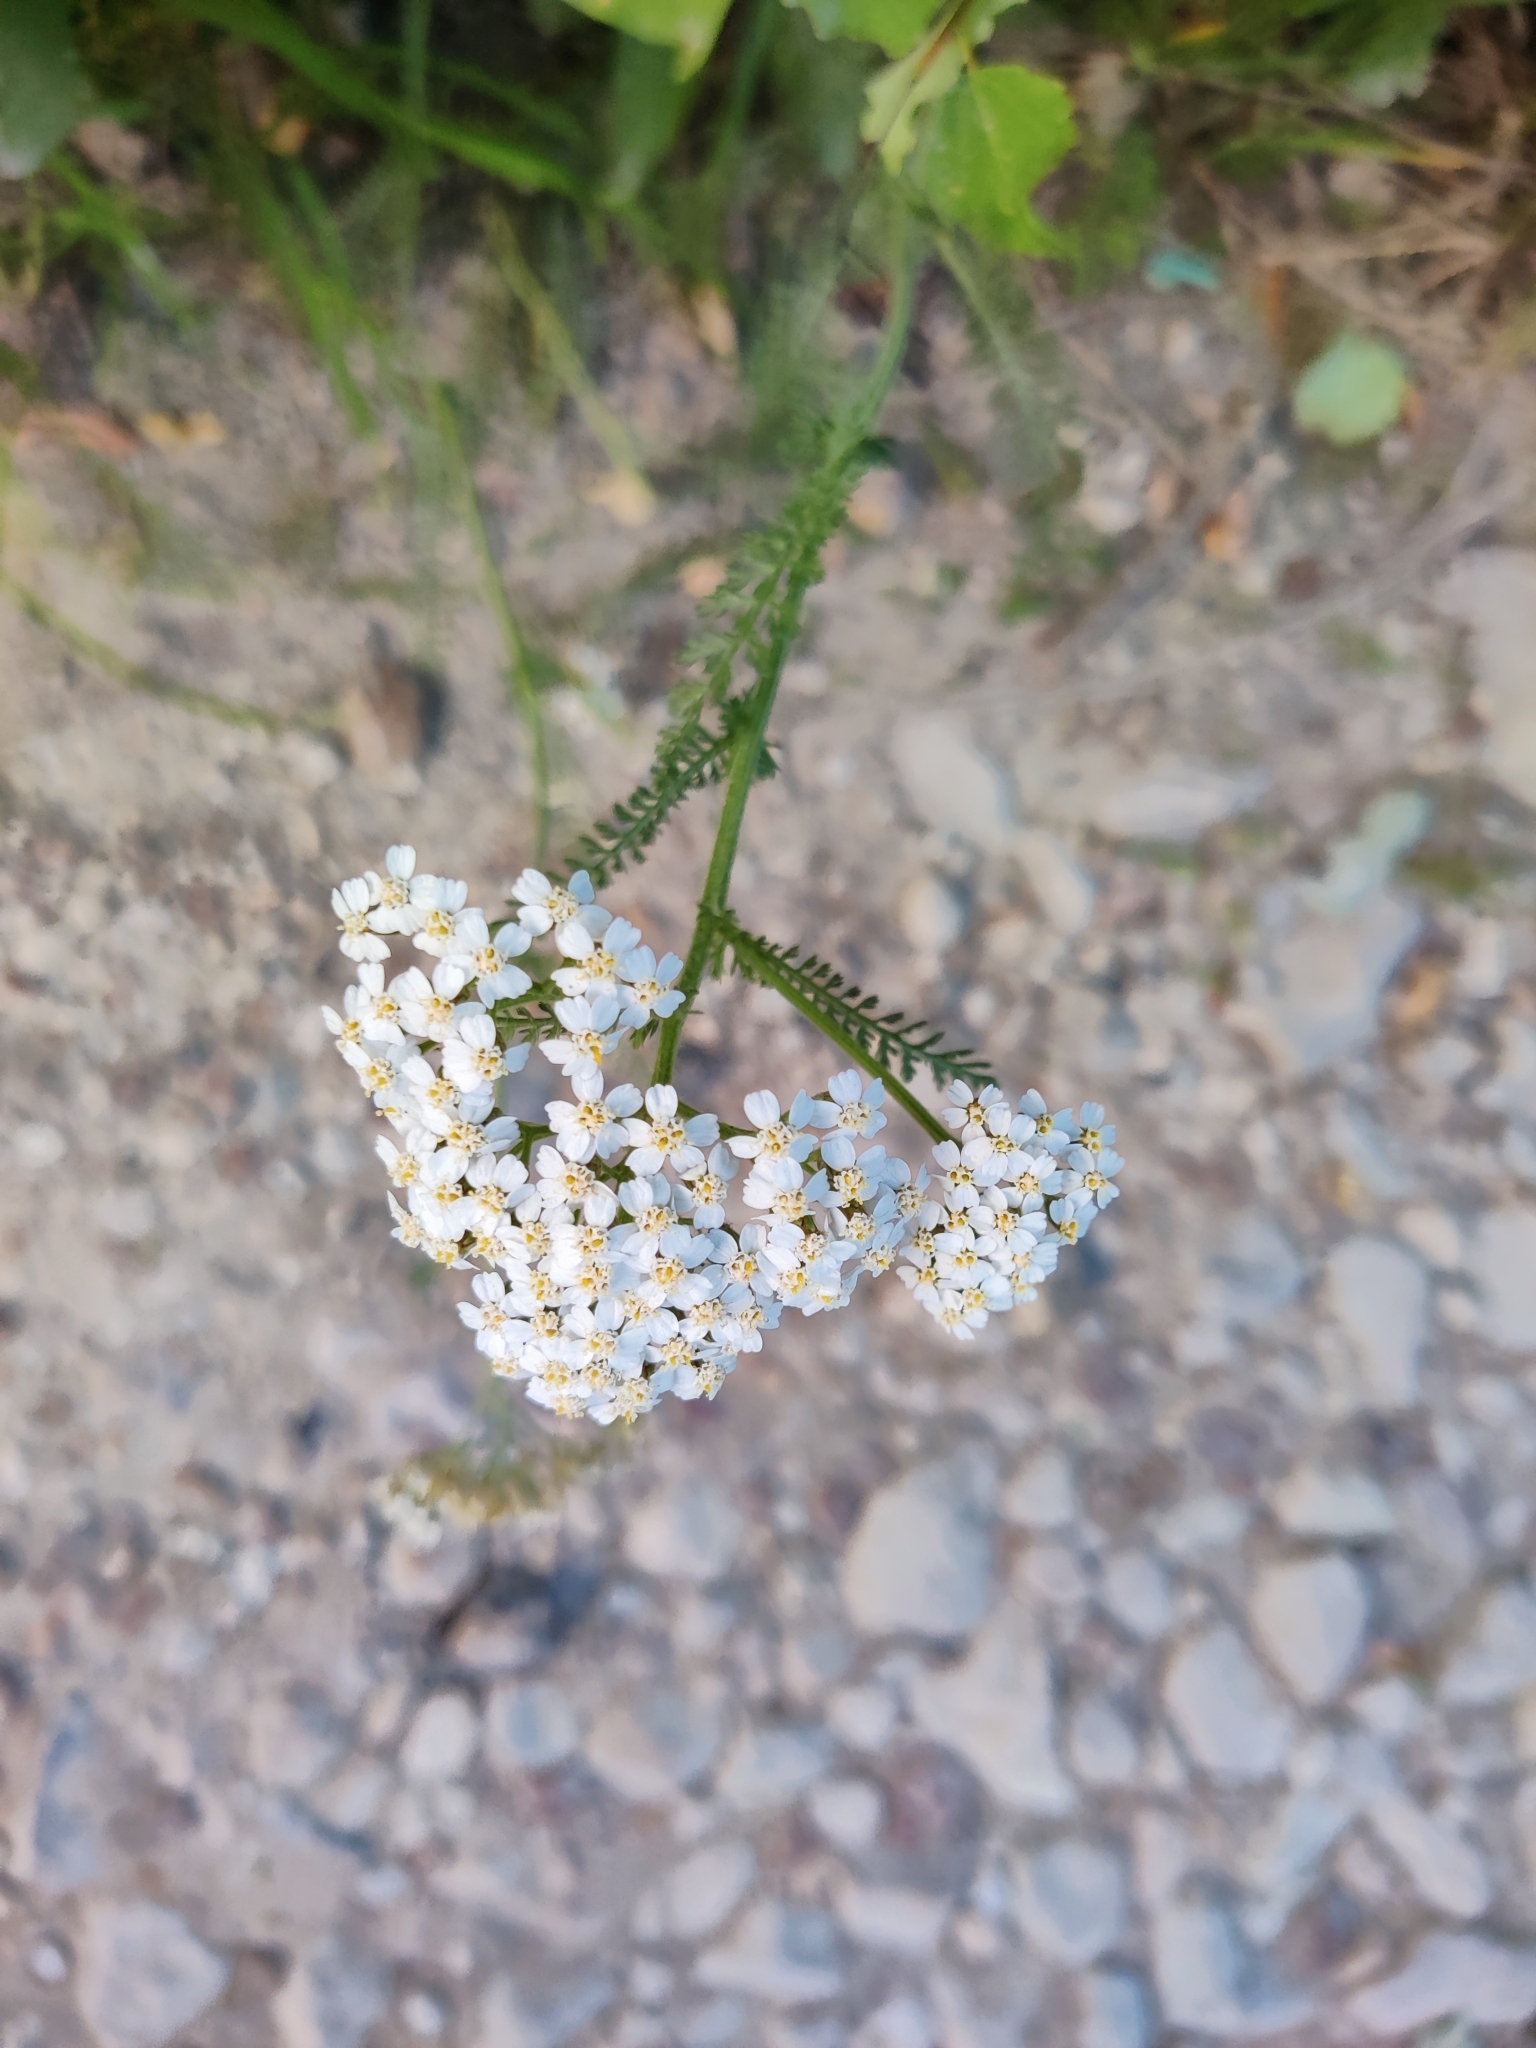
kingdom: Plantae
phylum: Tracheophyta
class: Magnoliopsida
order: Asterales
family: Asteraceae
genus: Achillea
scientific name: Achillea millefolium
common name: Yarrow
